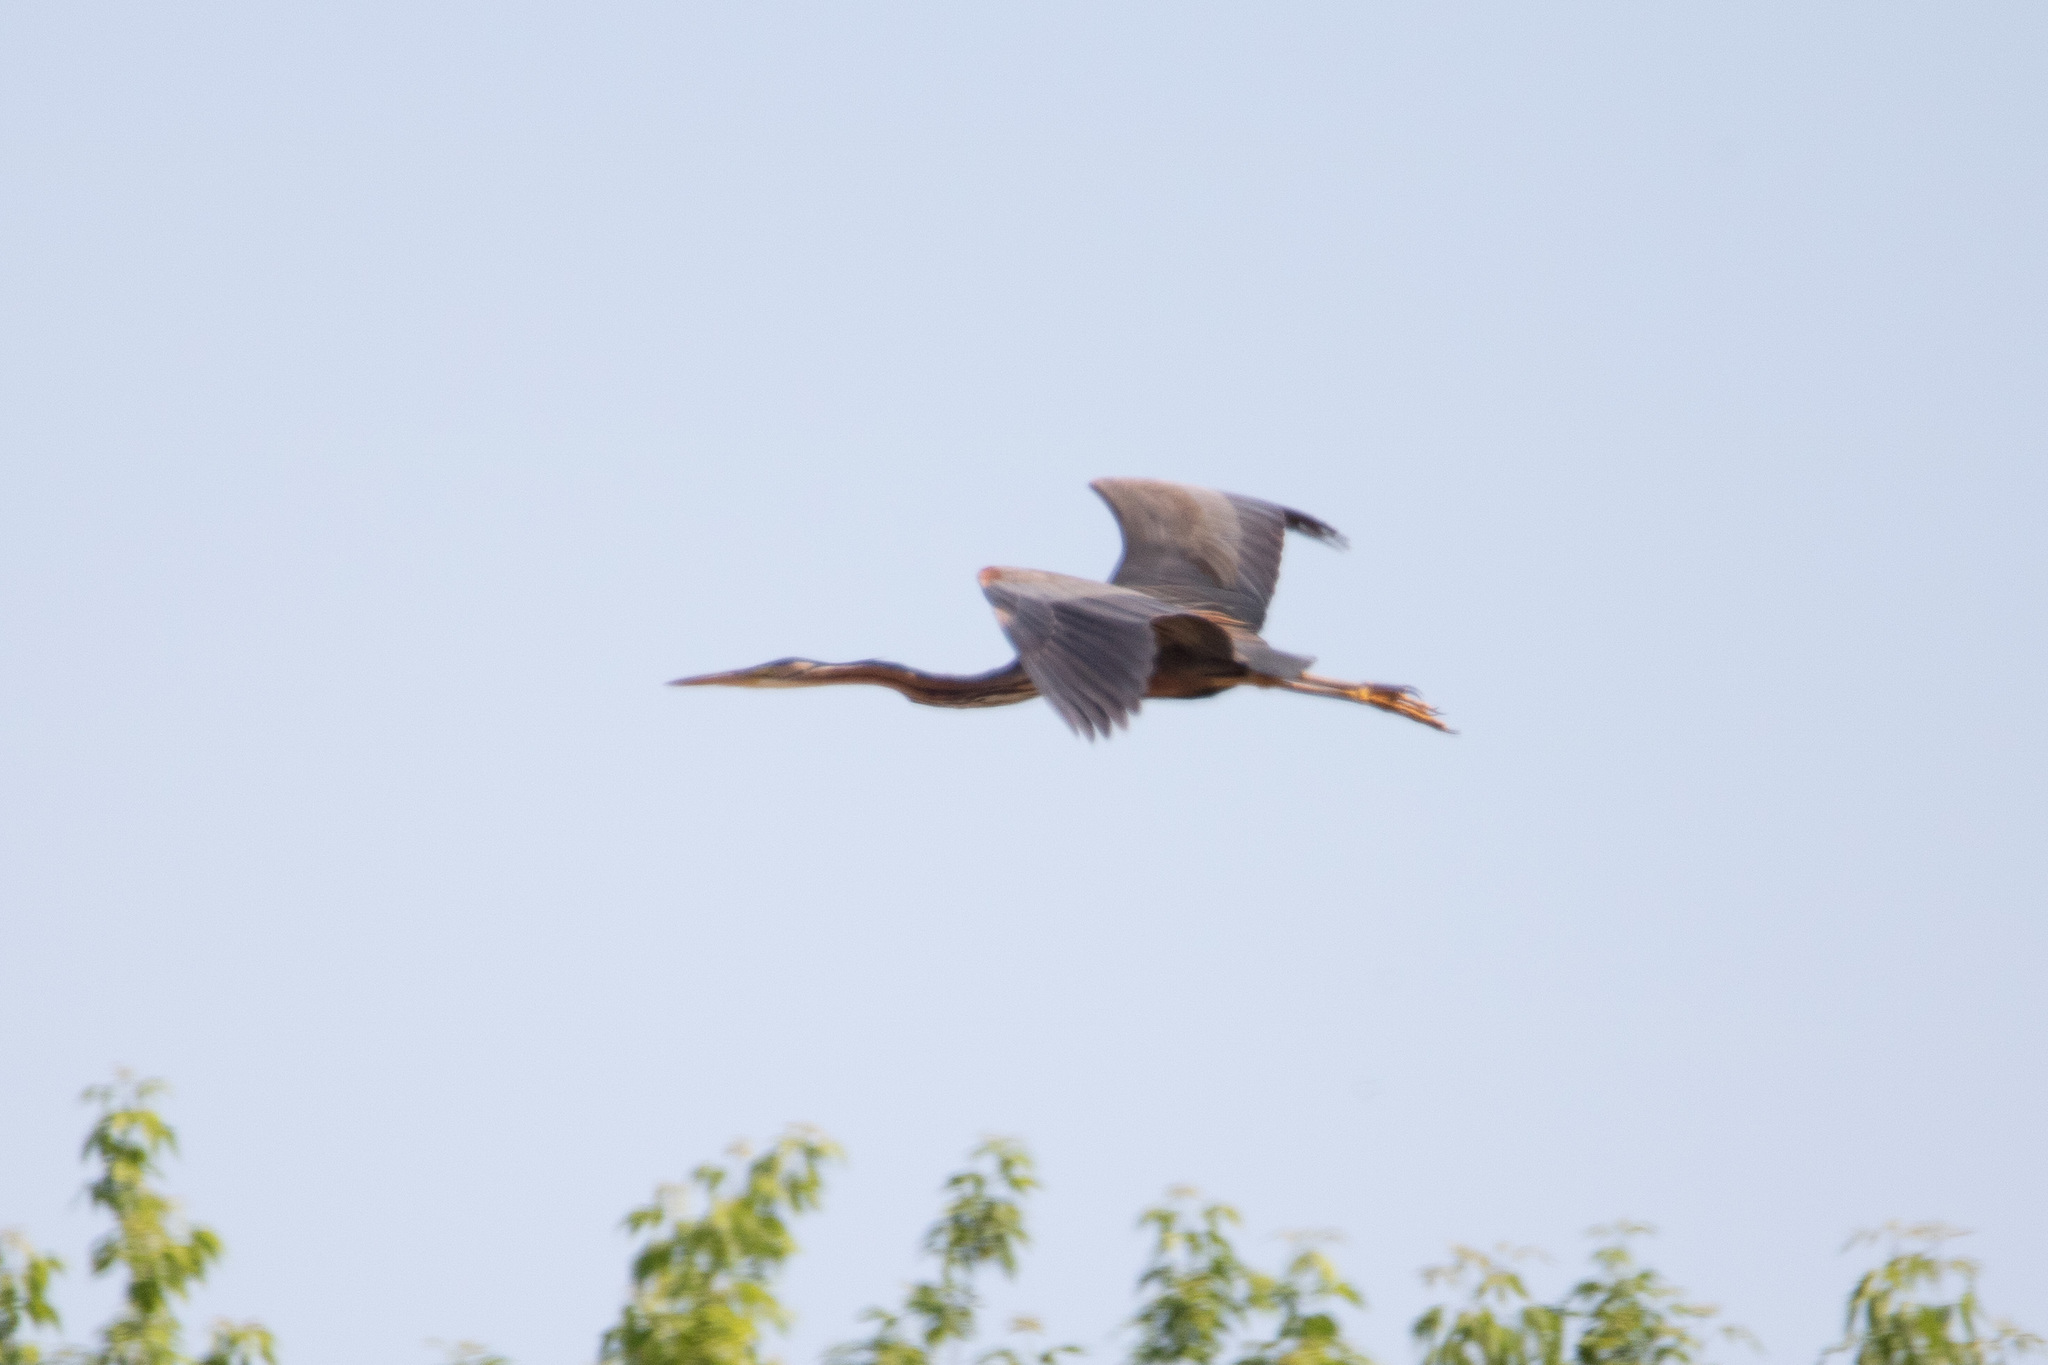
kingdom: Animalia
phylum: Chordata
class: Aves
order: Pelecaniformes
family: Ardeidae
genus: Ardea
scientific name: Ardea purpurea
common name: Purple heron
